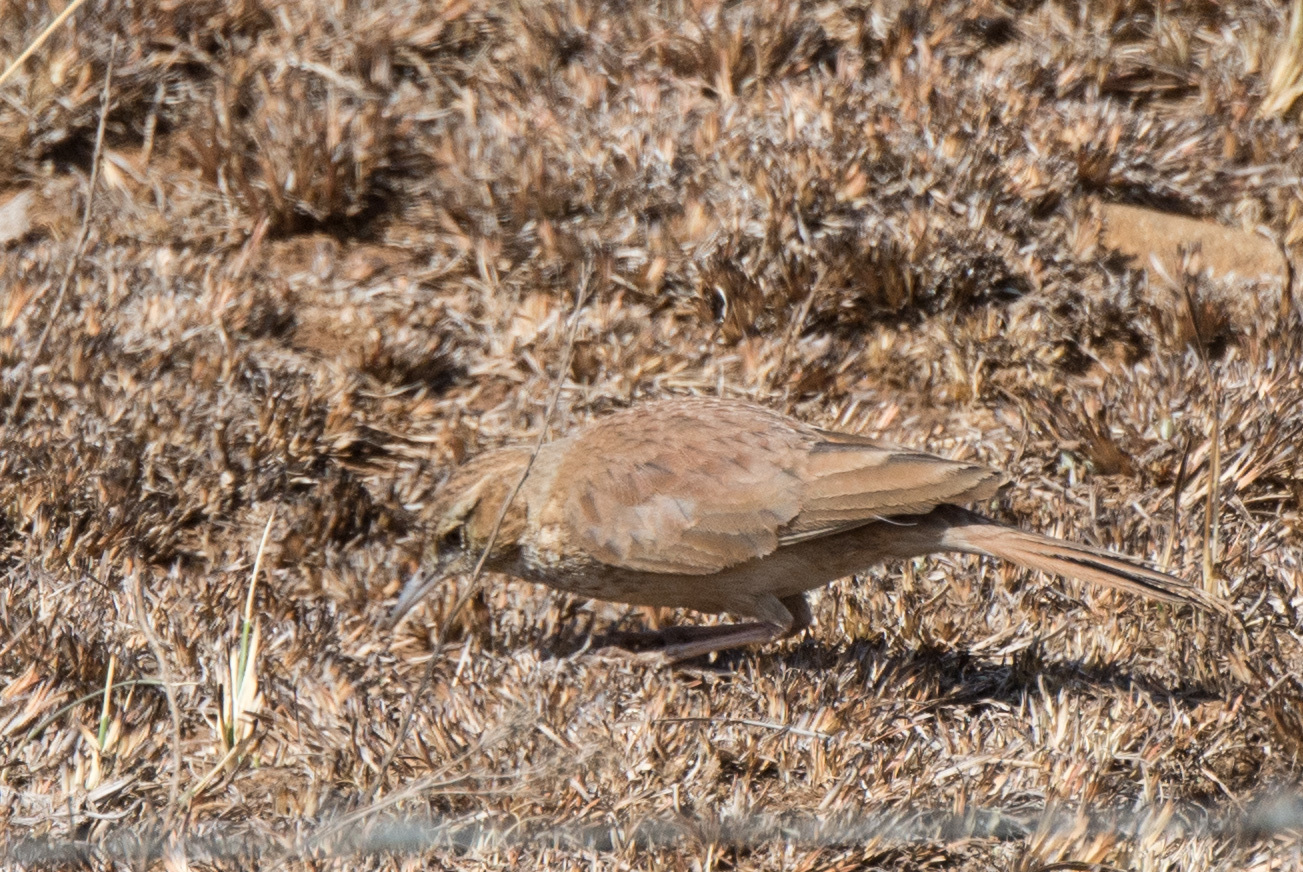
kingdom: Animalia
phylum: Chordata
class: Aves
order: Passeriformes
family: Alaudidae
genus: Certhilauda
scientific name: Certhilauda semitorquata
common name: Eastern long-billed lark
